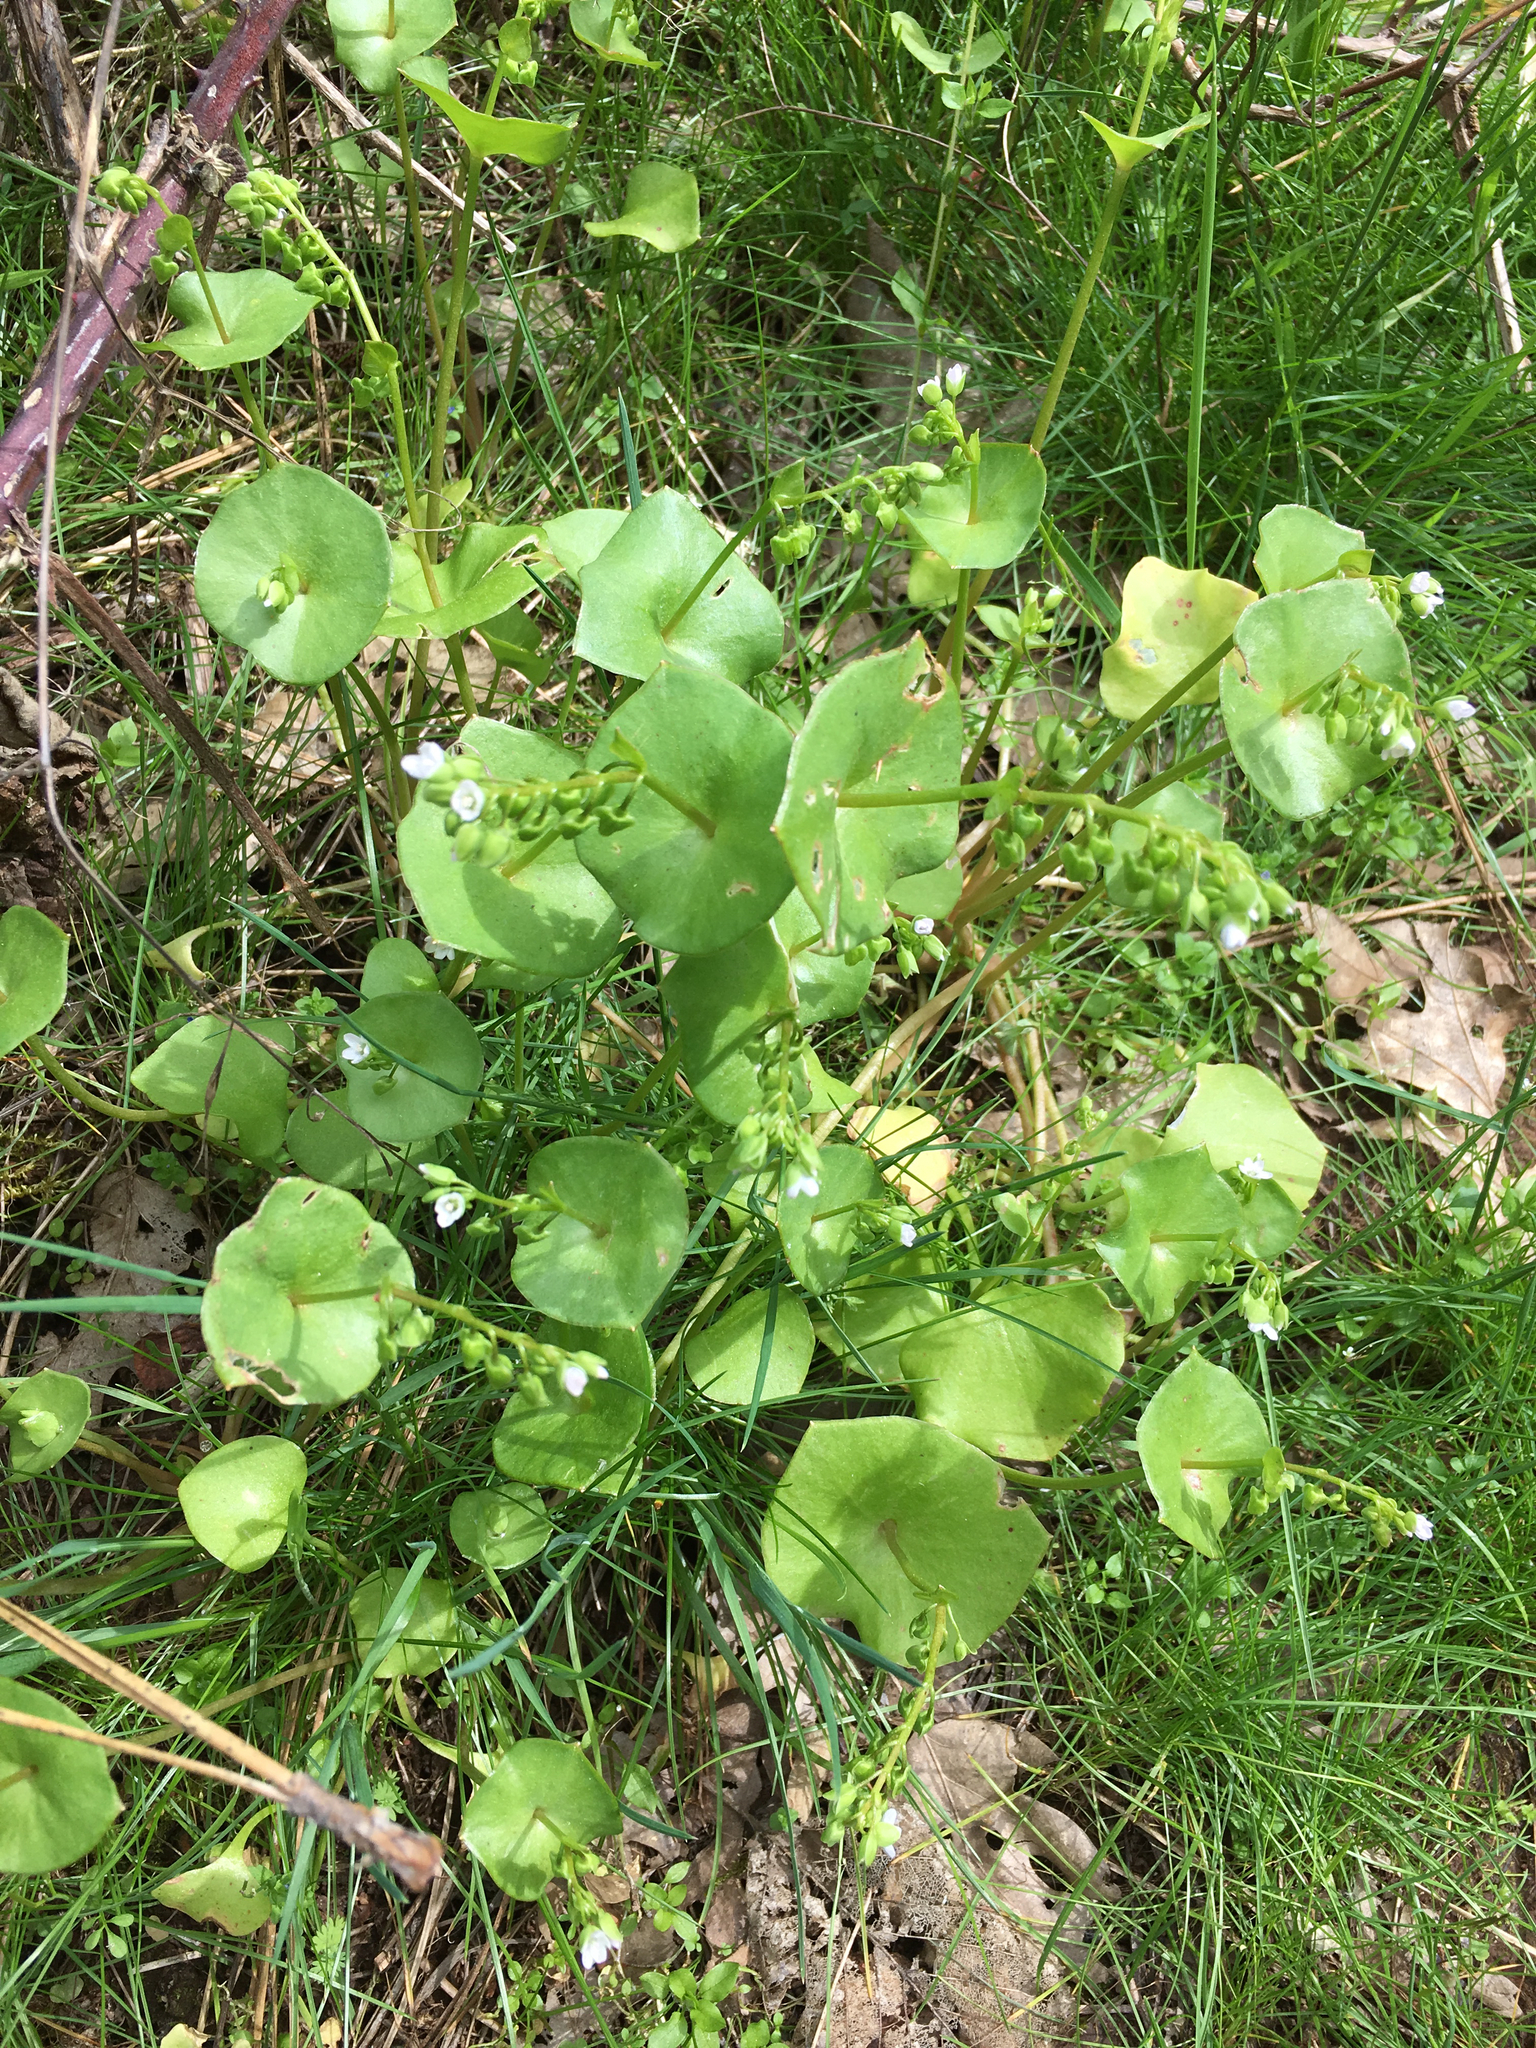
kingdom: Plantae
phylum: Tracheophyta
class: Magnoliopsida
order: Caryophyllales
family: Montiaceae
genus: Claytonia
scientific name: Claytonia perfoliata
